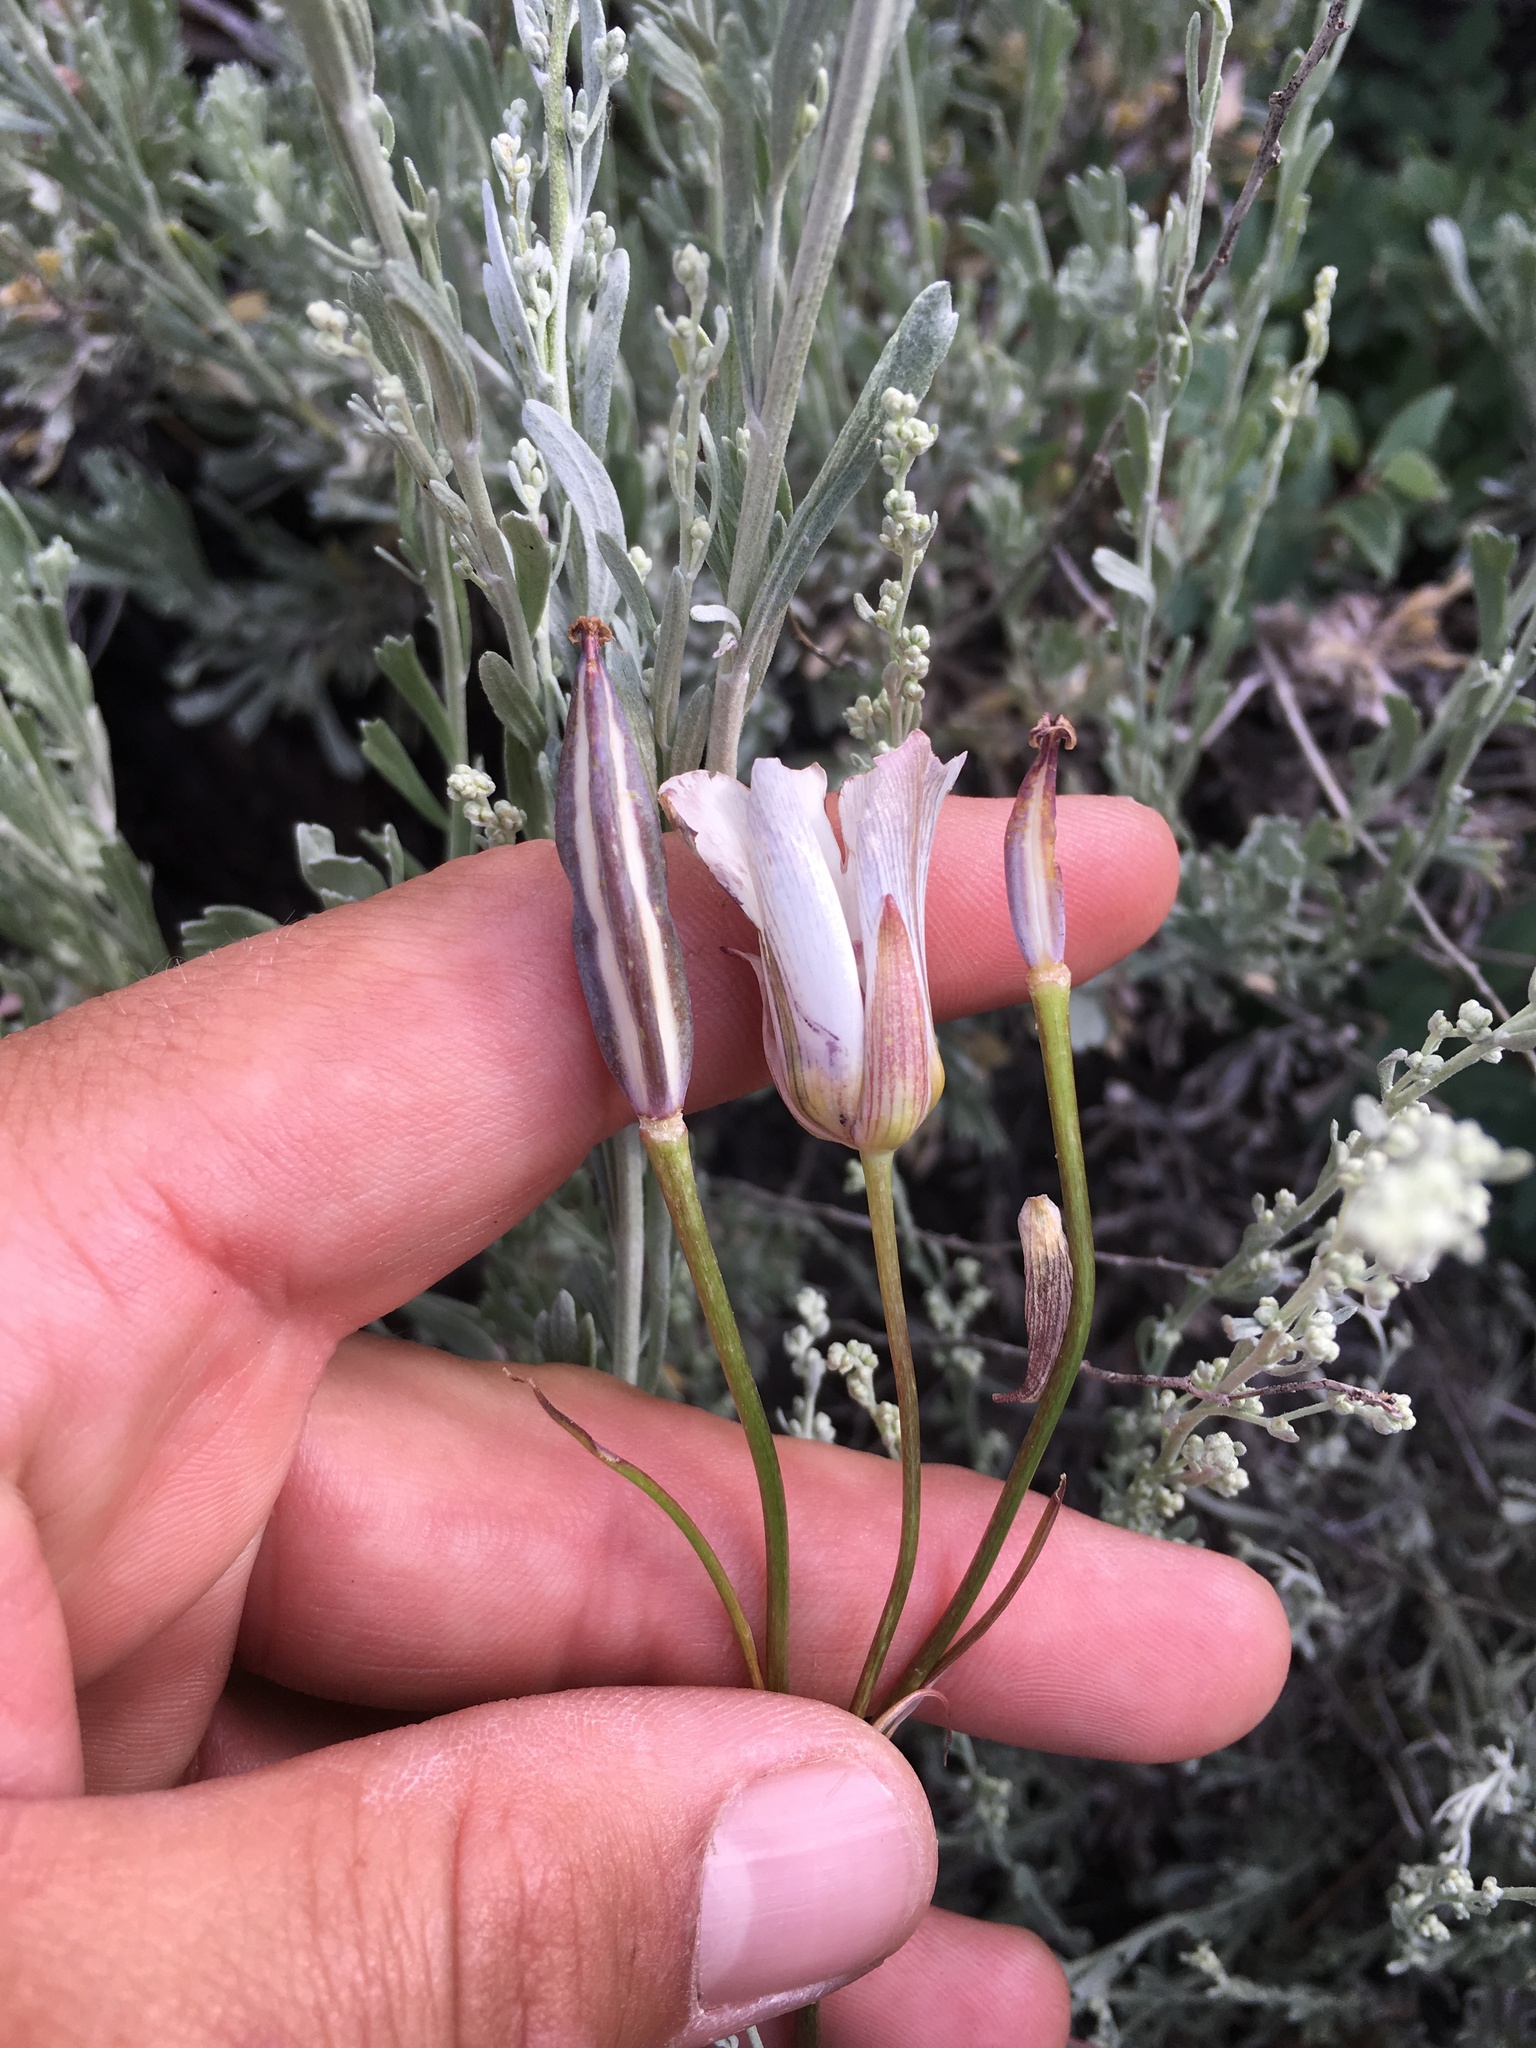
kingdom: Plantae
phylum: Tracheophyta
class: Liliopsida
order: Liliales
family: Liliaceae
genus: Calochortus
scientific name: Calochortus bruneaunis
